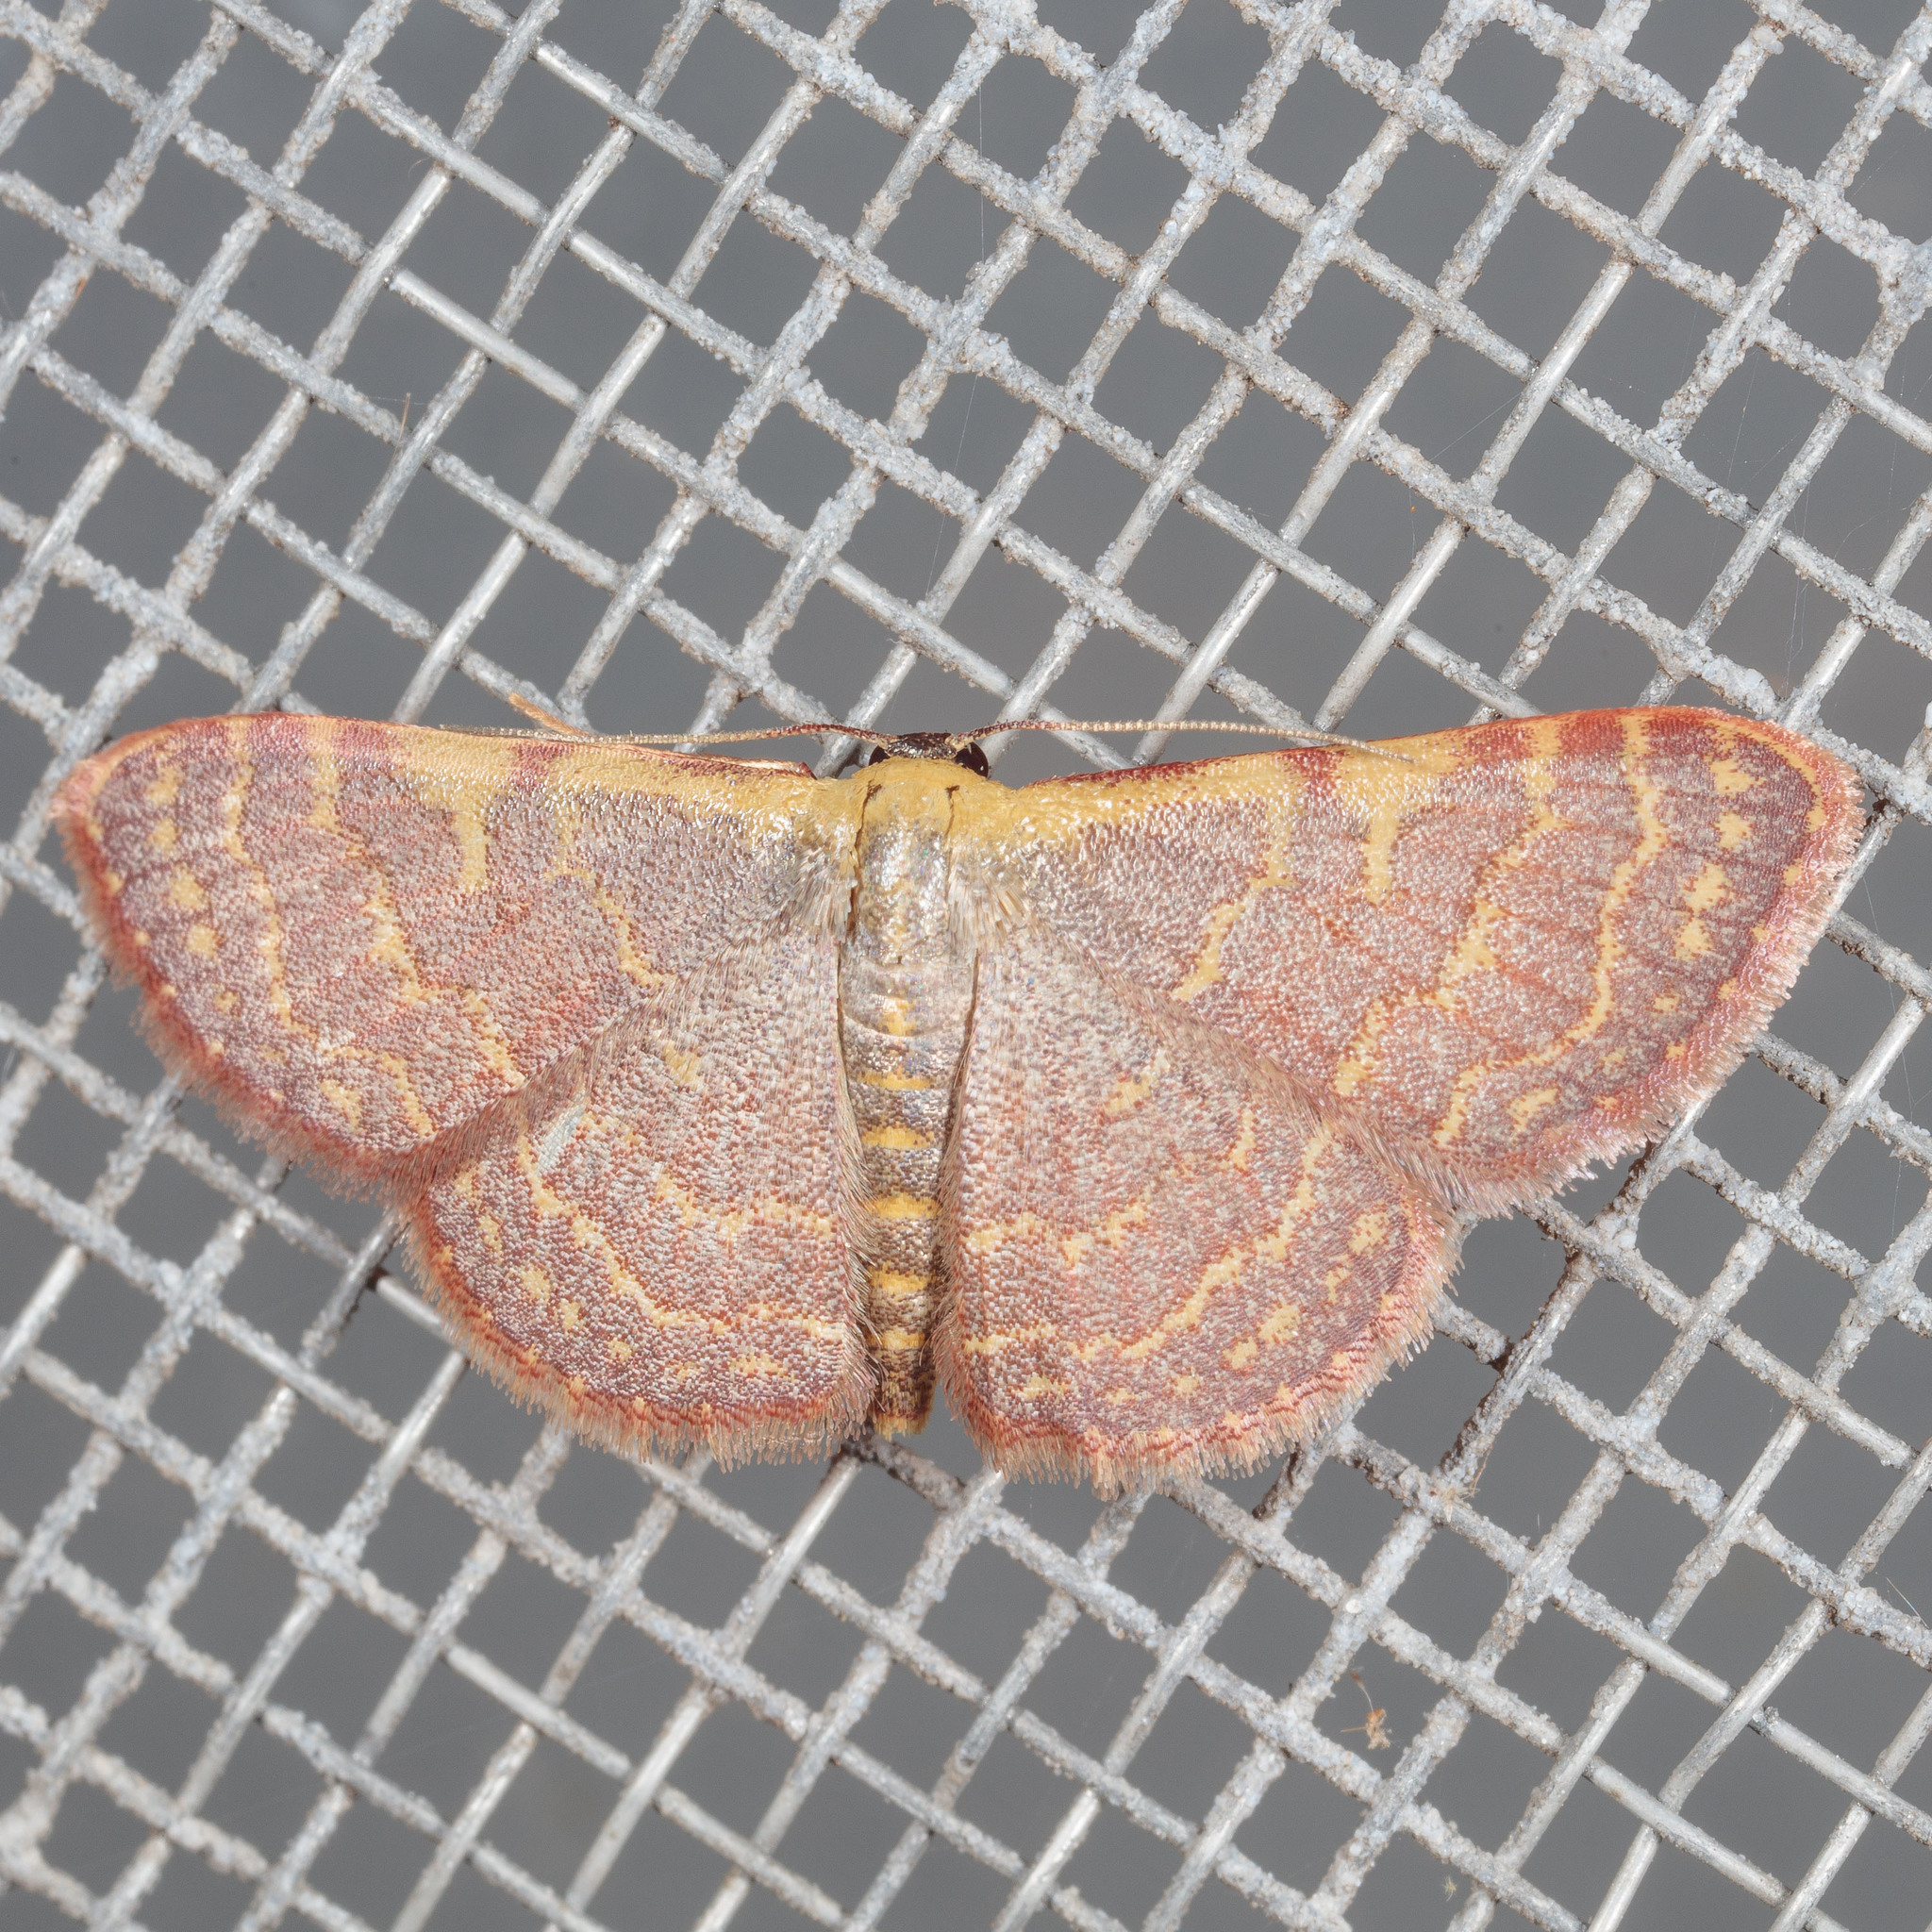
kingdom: Animalia
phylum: Arthropoda
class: Insecta
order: Lepidoptera
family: Geometridae
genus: Leptostales
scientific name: Leptostales pannaria
